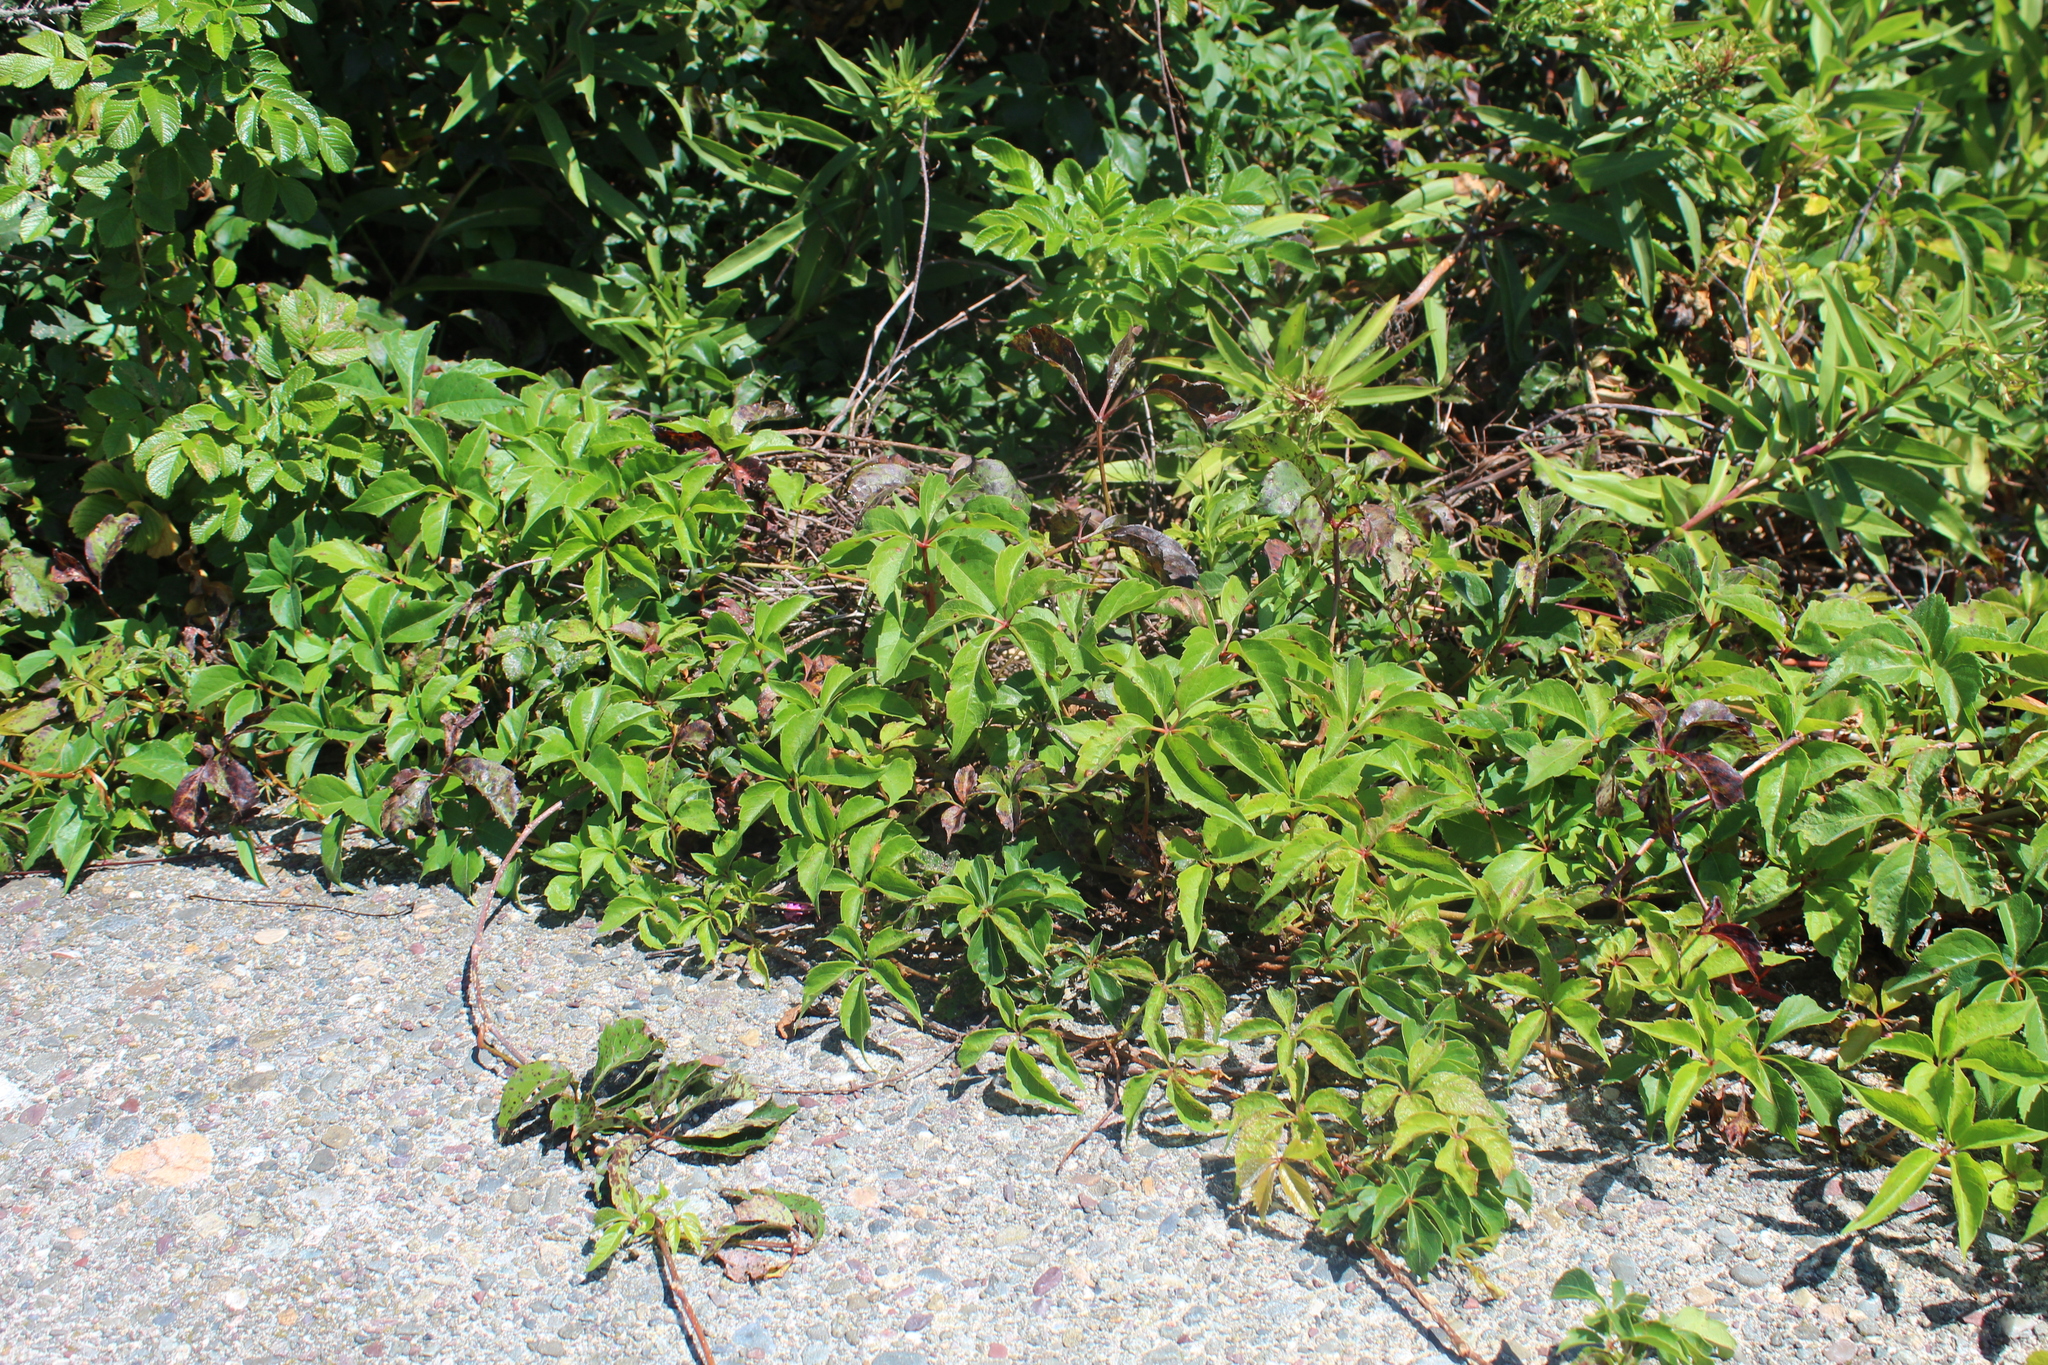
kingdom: Plantae
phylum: Tracheophyta
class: Magnoliopsida
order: Vitales
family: Vitaceae
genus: Parthenocissus
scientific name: Parthenocissus quinquefolia
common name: Virginia-creeper
